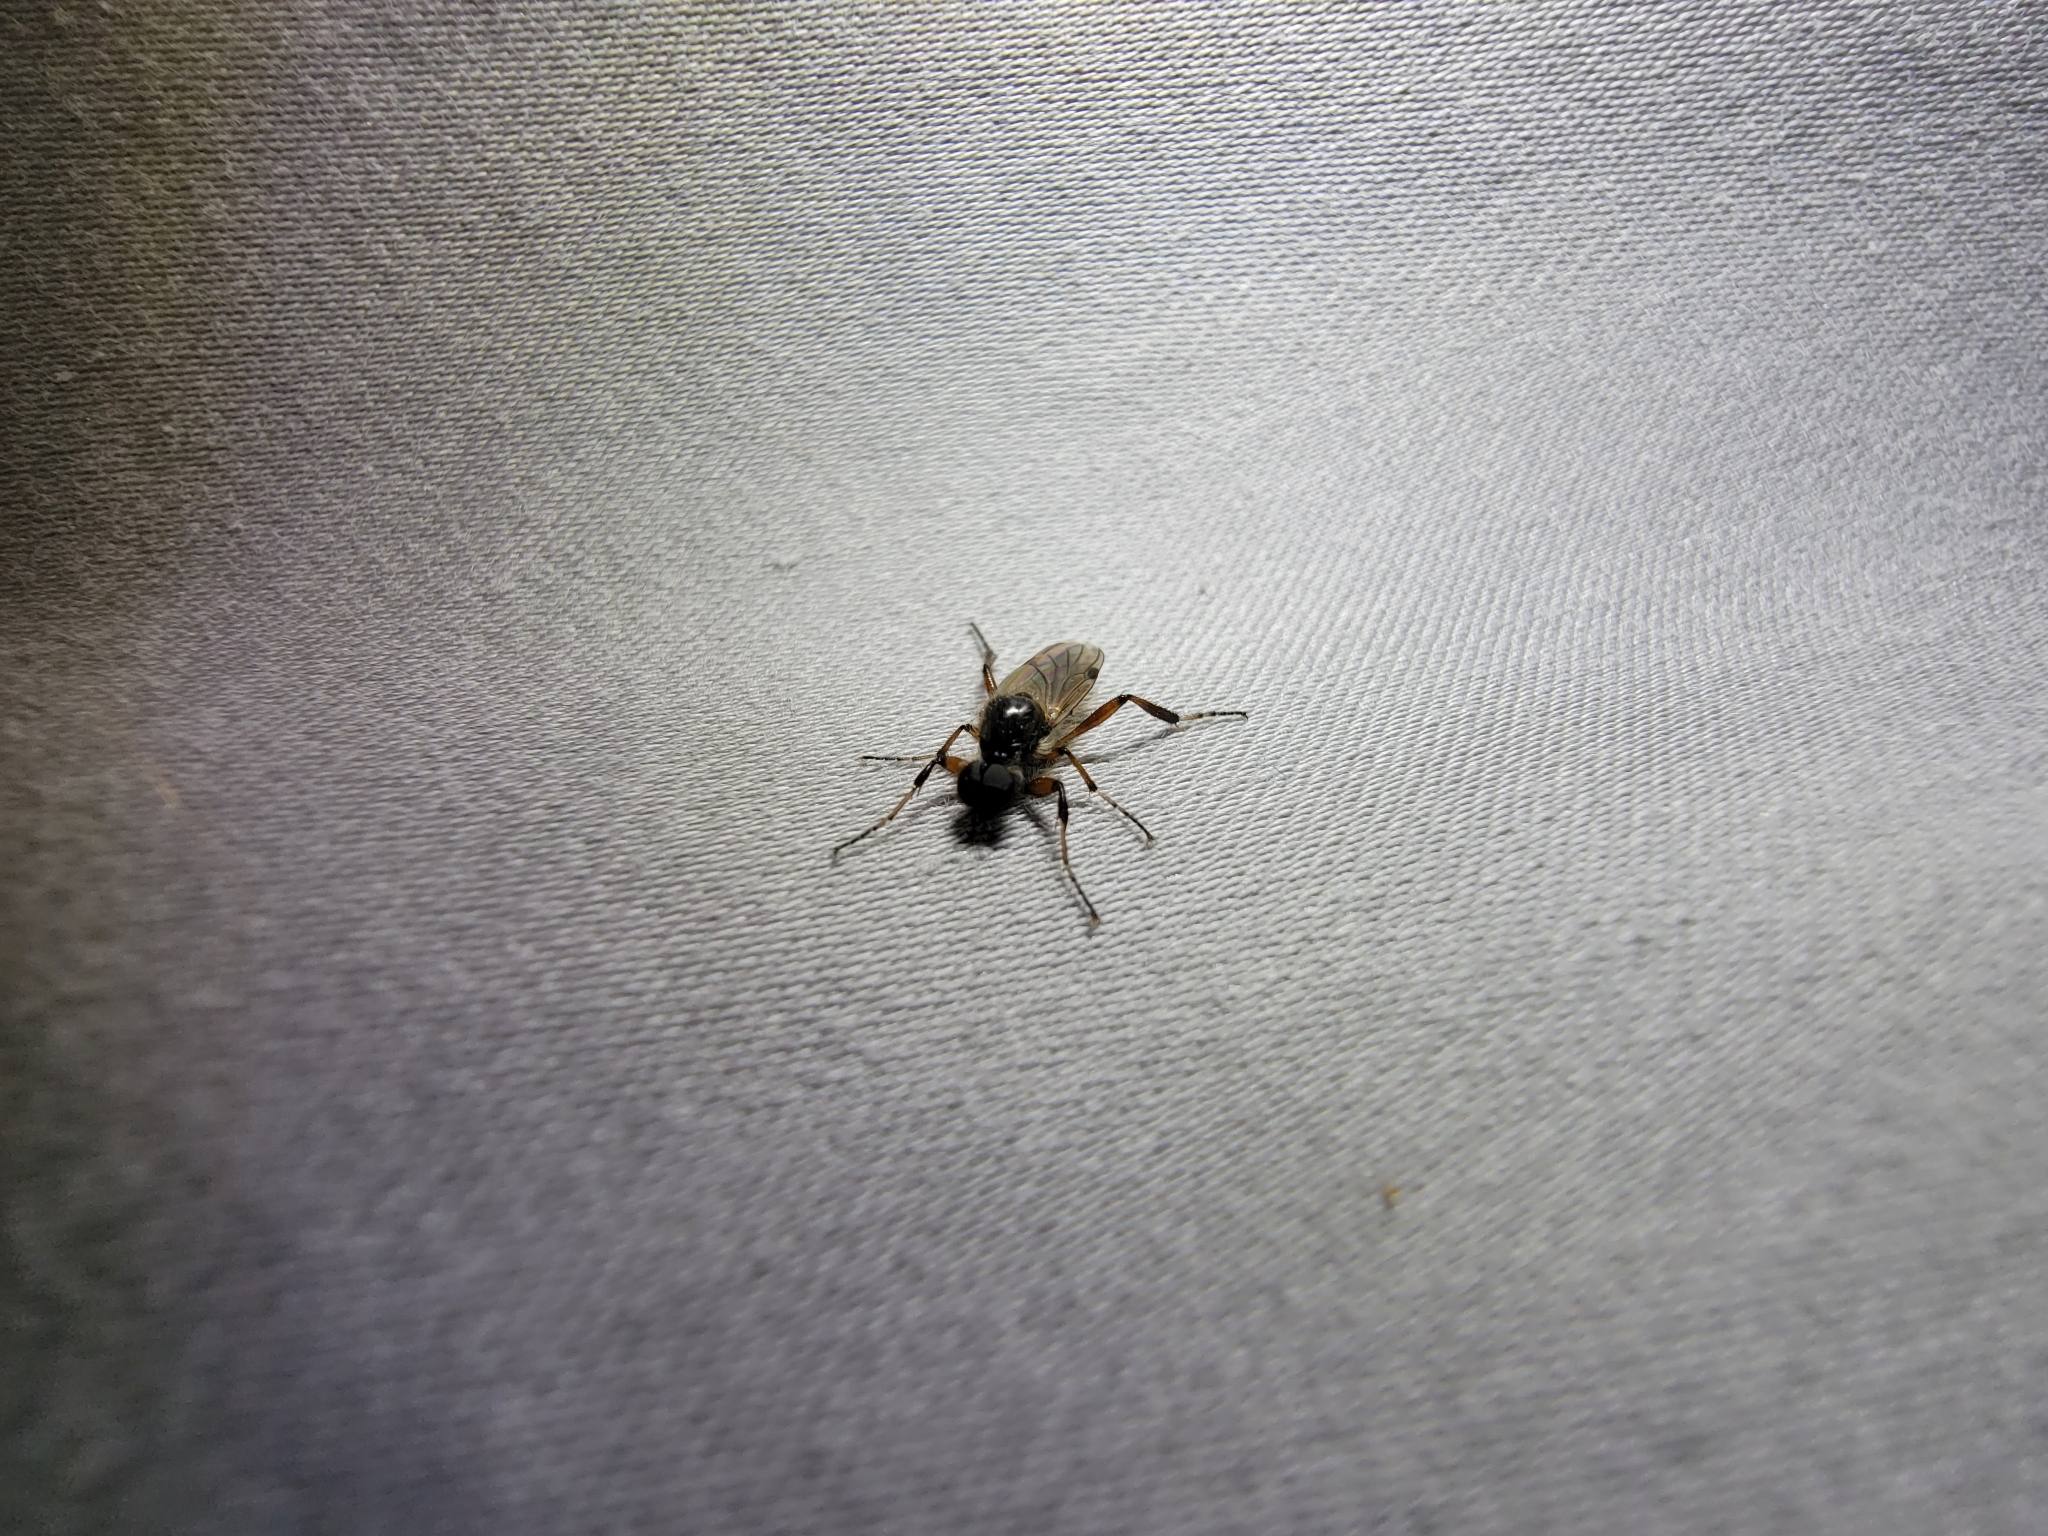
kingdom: Animalia
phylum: Arthropoda
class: Insecta
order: Diptera
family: Bibionidae
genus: Bibio
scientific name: Bibio articulatus
